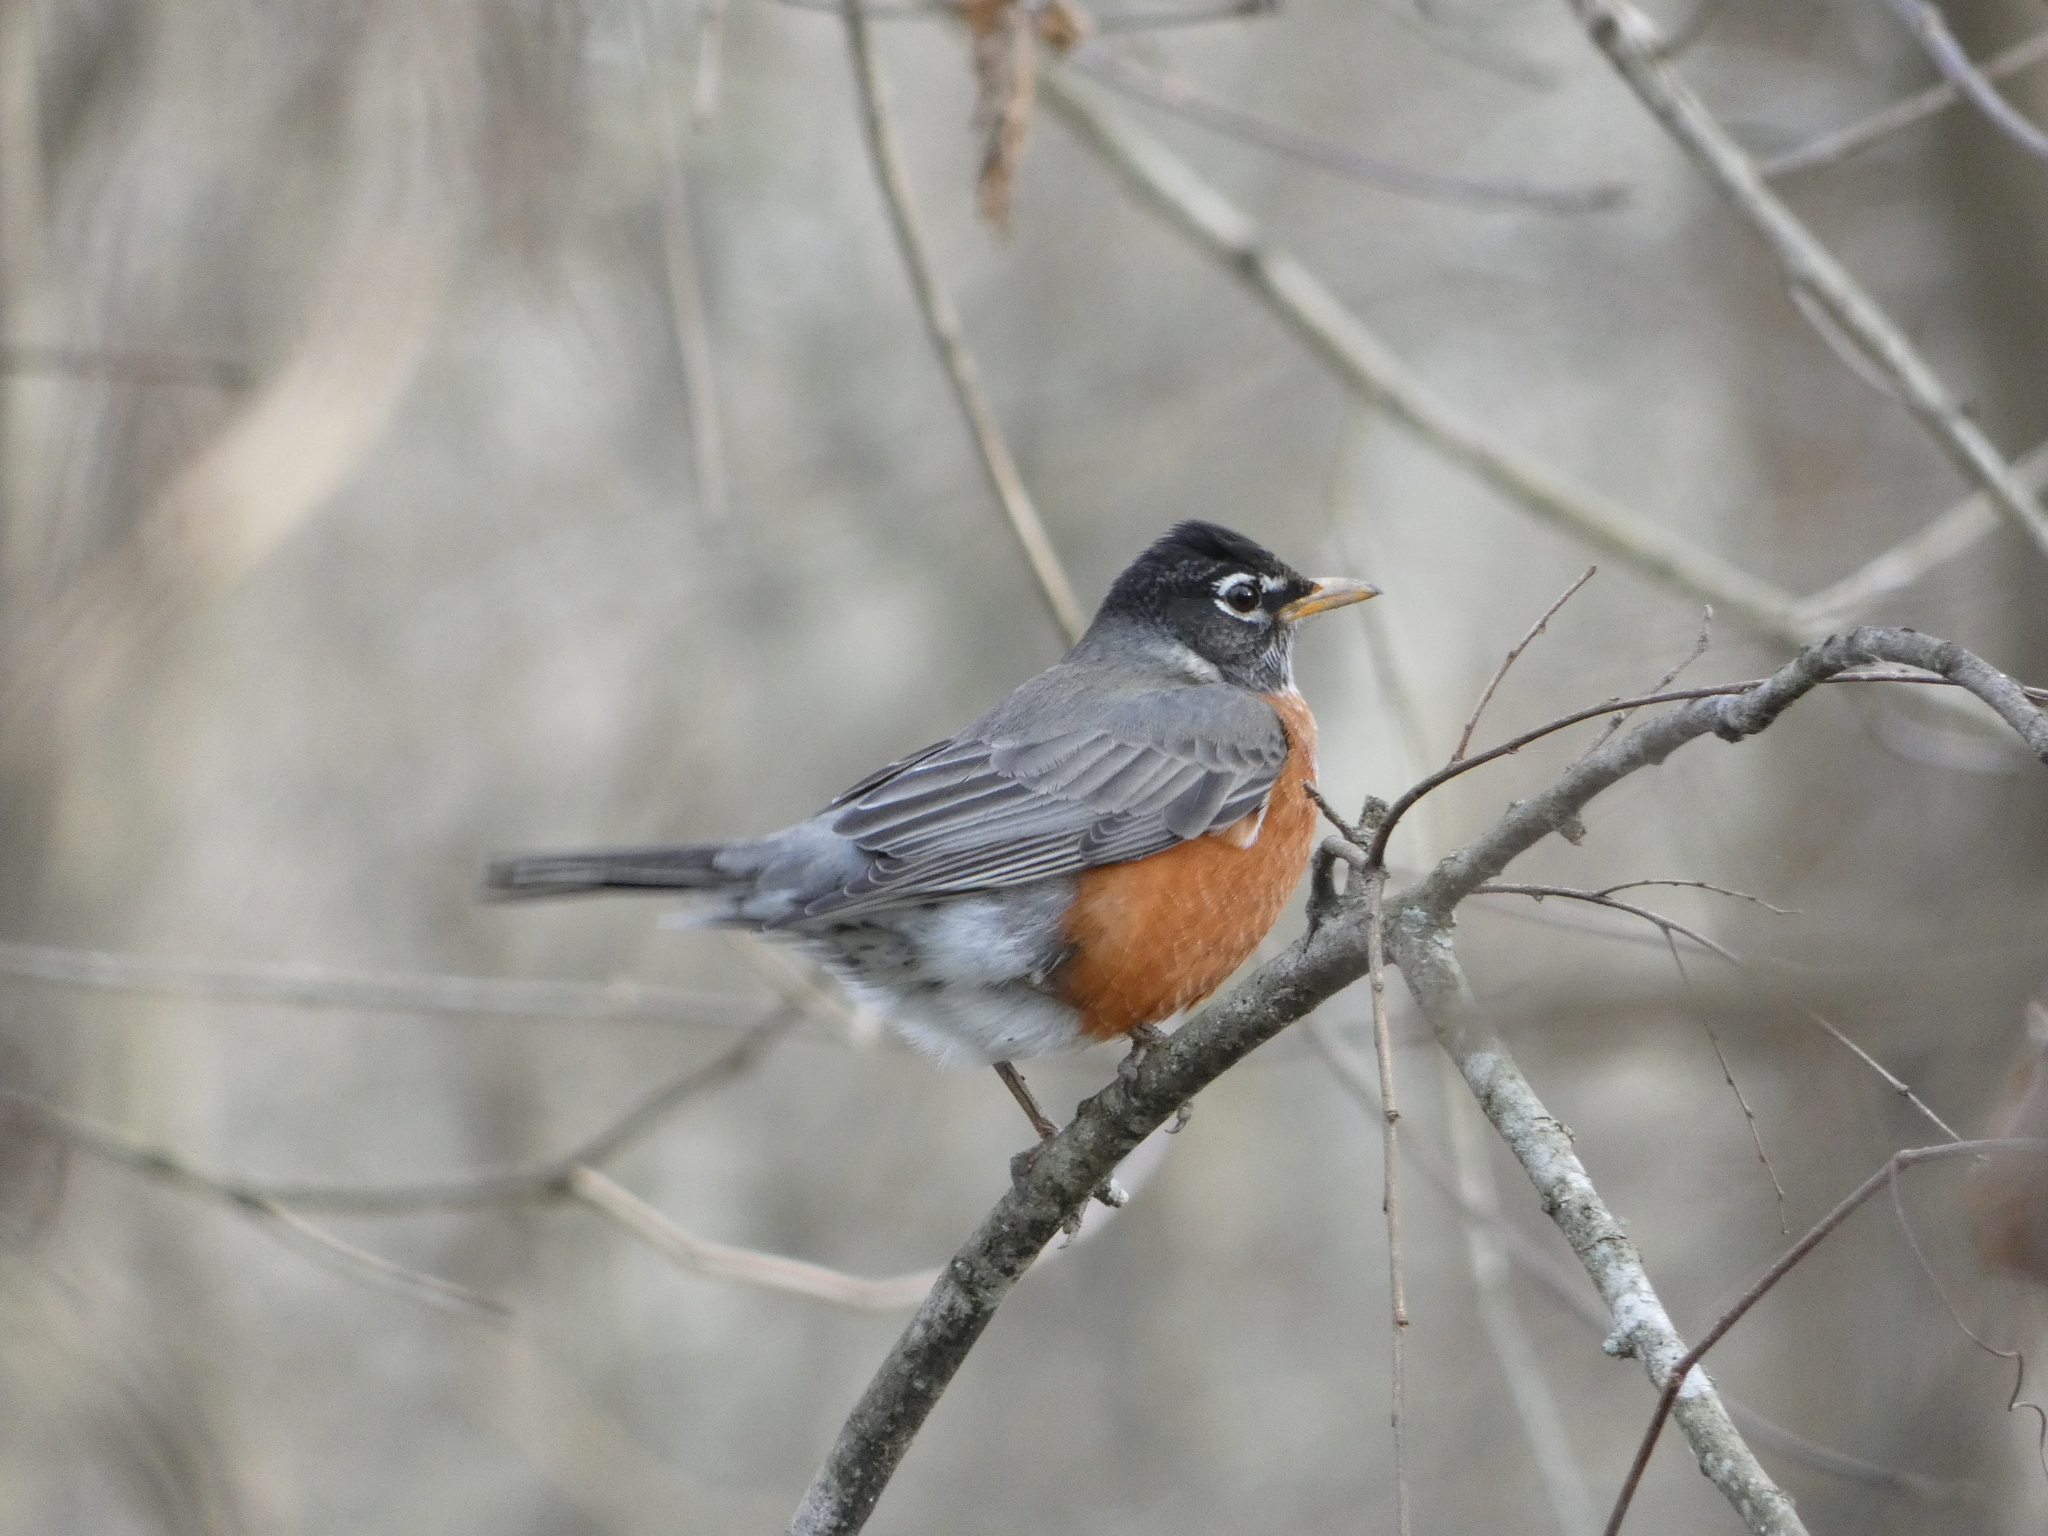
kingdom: Animalia
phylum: Chordata
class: Aves
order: Passeriformes
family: Turdidae
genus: Turdus
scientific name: Turdus migratorius
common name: American robin
